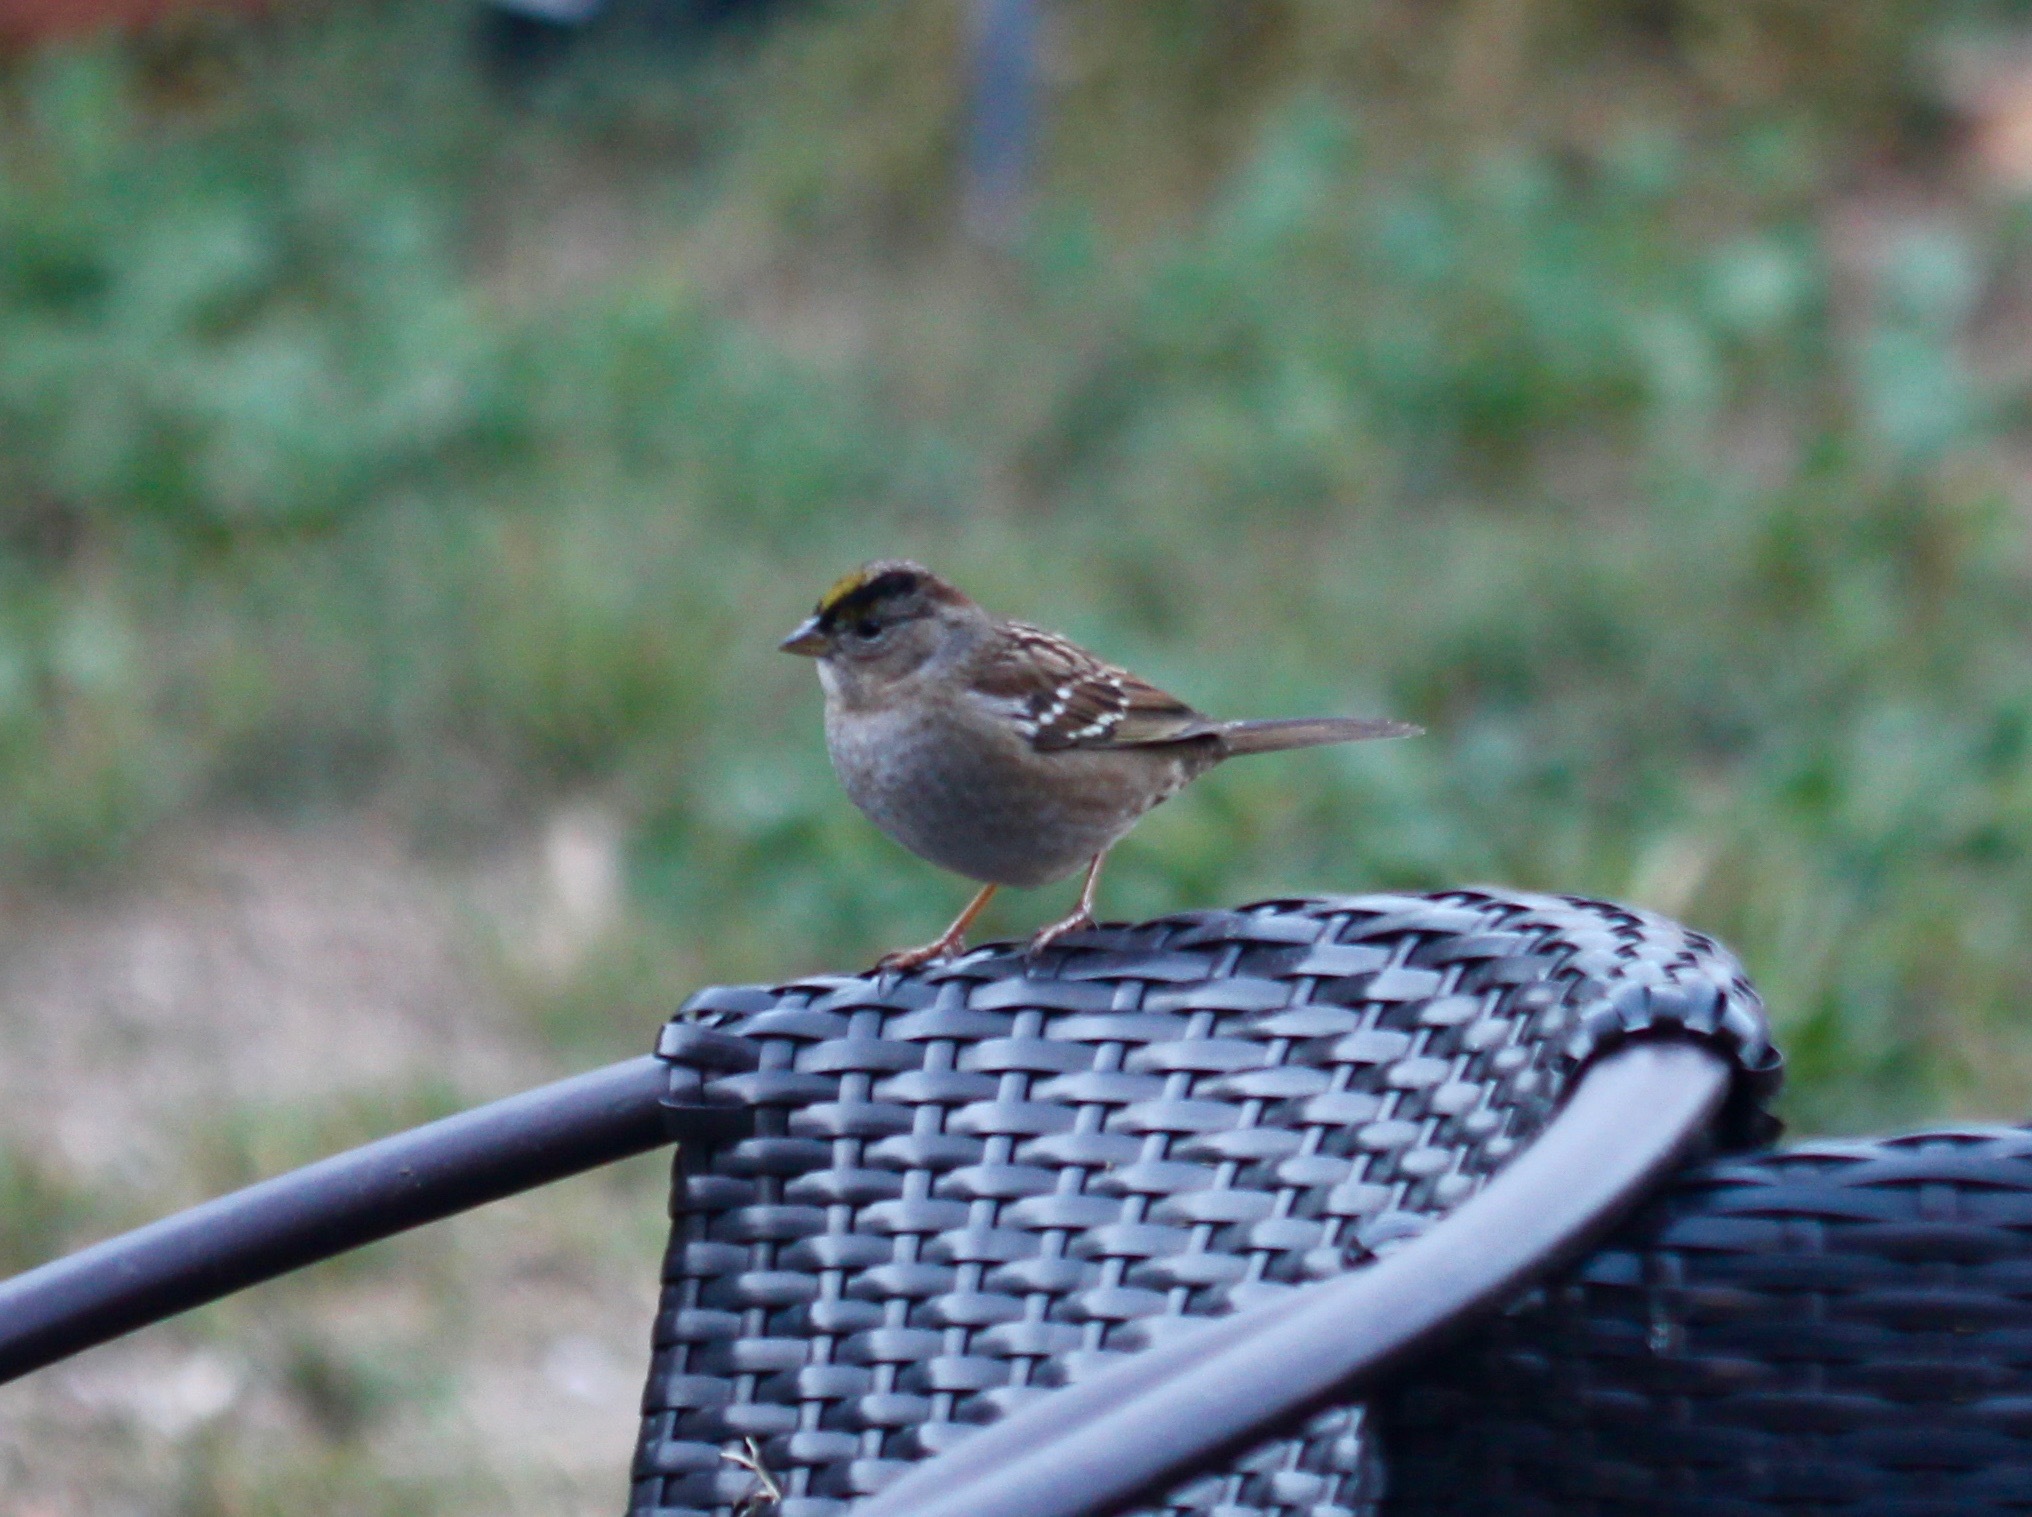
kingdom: Animalia
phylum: Chordata
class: Aves
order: Passeriformes
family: Passerellidae
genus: Zonotrichia
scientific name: Zonotrichia atricapilla
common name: Golden-crowned sparrow
